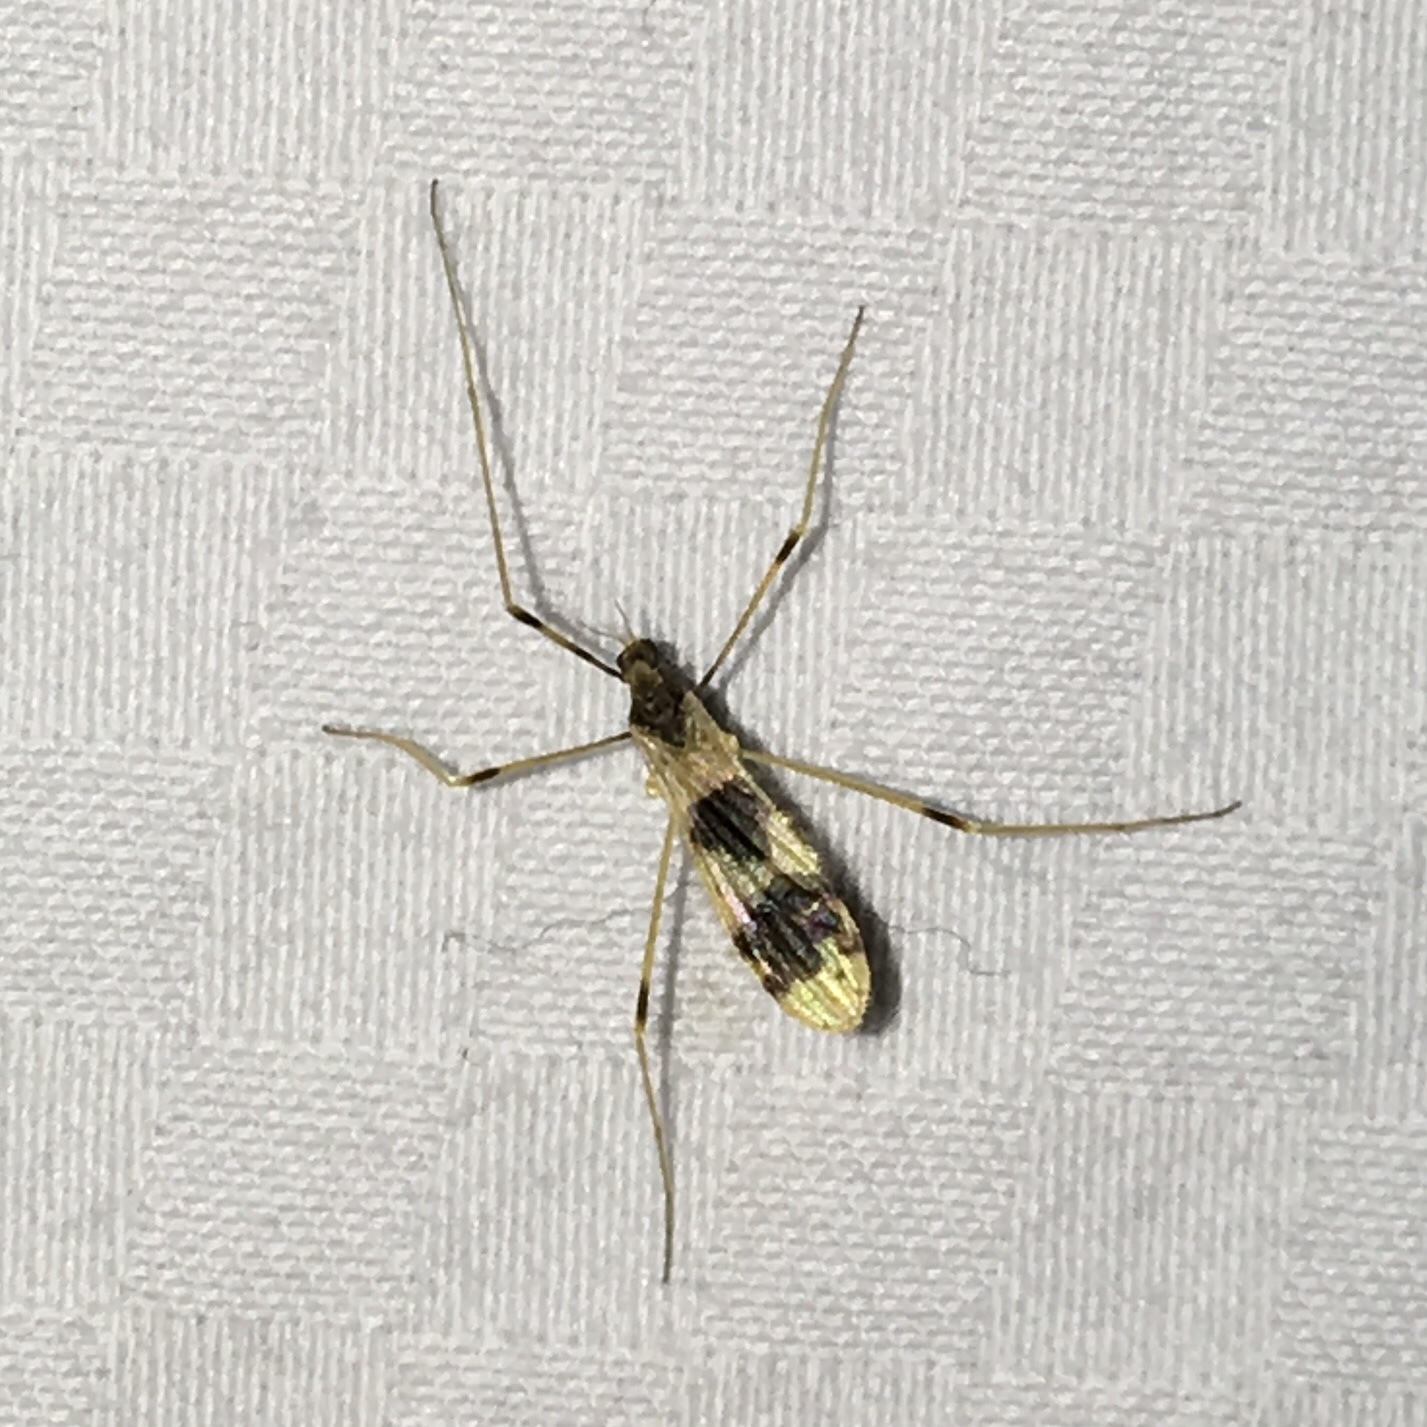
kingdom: Animalia
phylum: Arthropoda
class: Insecta
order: Diptera
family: Limoniidae
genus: Ilisia
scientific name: Ilisia venusta
